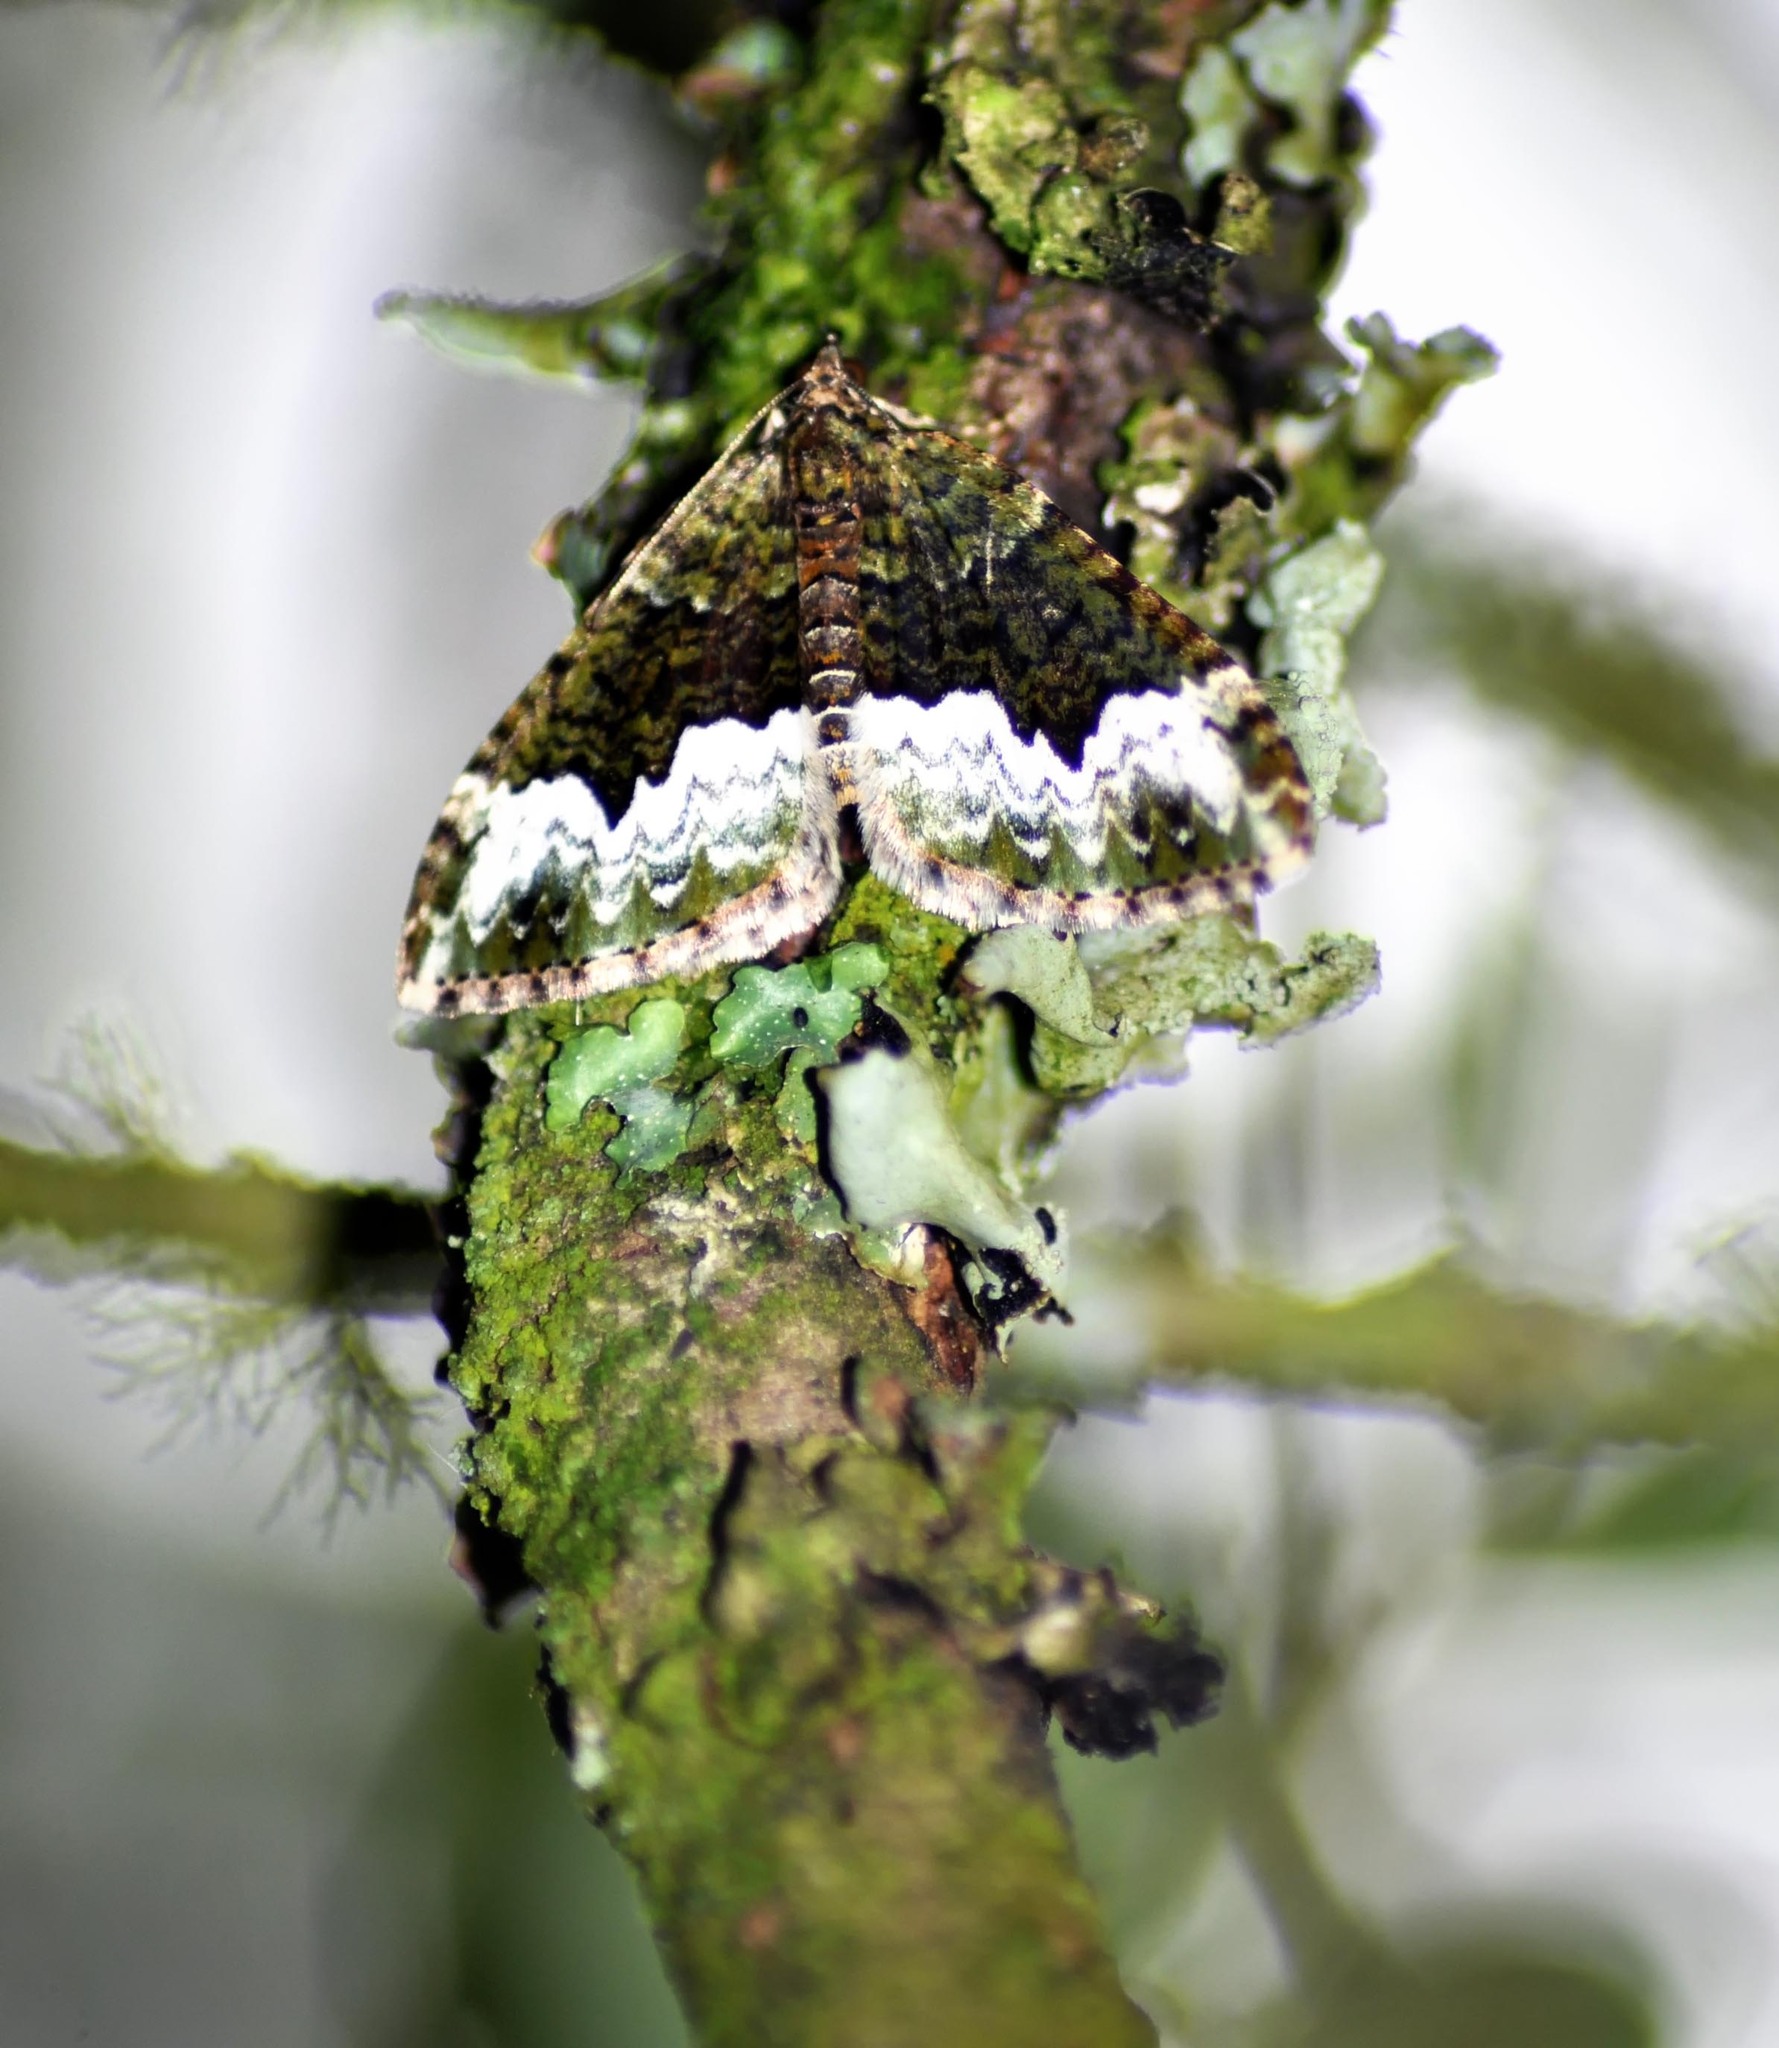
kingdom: Animalia
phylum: Arthropoda
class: Insecta
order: Lepidoptera
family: Geometridae
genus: Euphyia
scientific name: Euphyia biangulata
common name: Cloaked carpet
